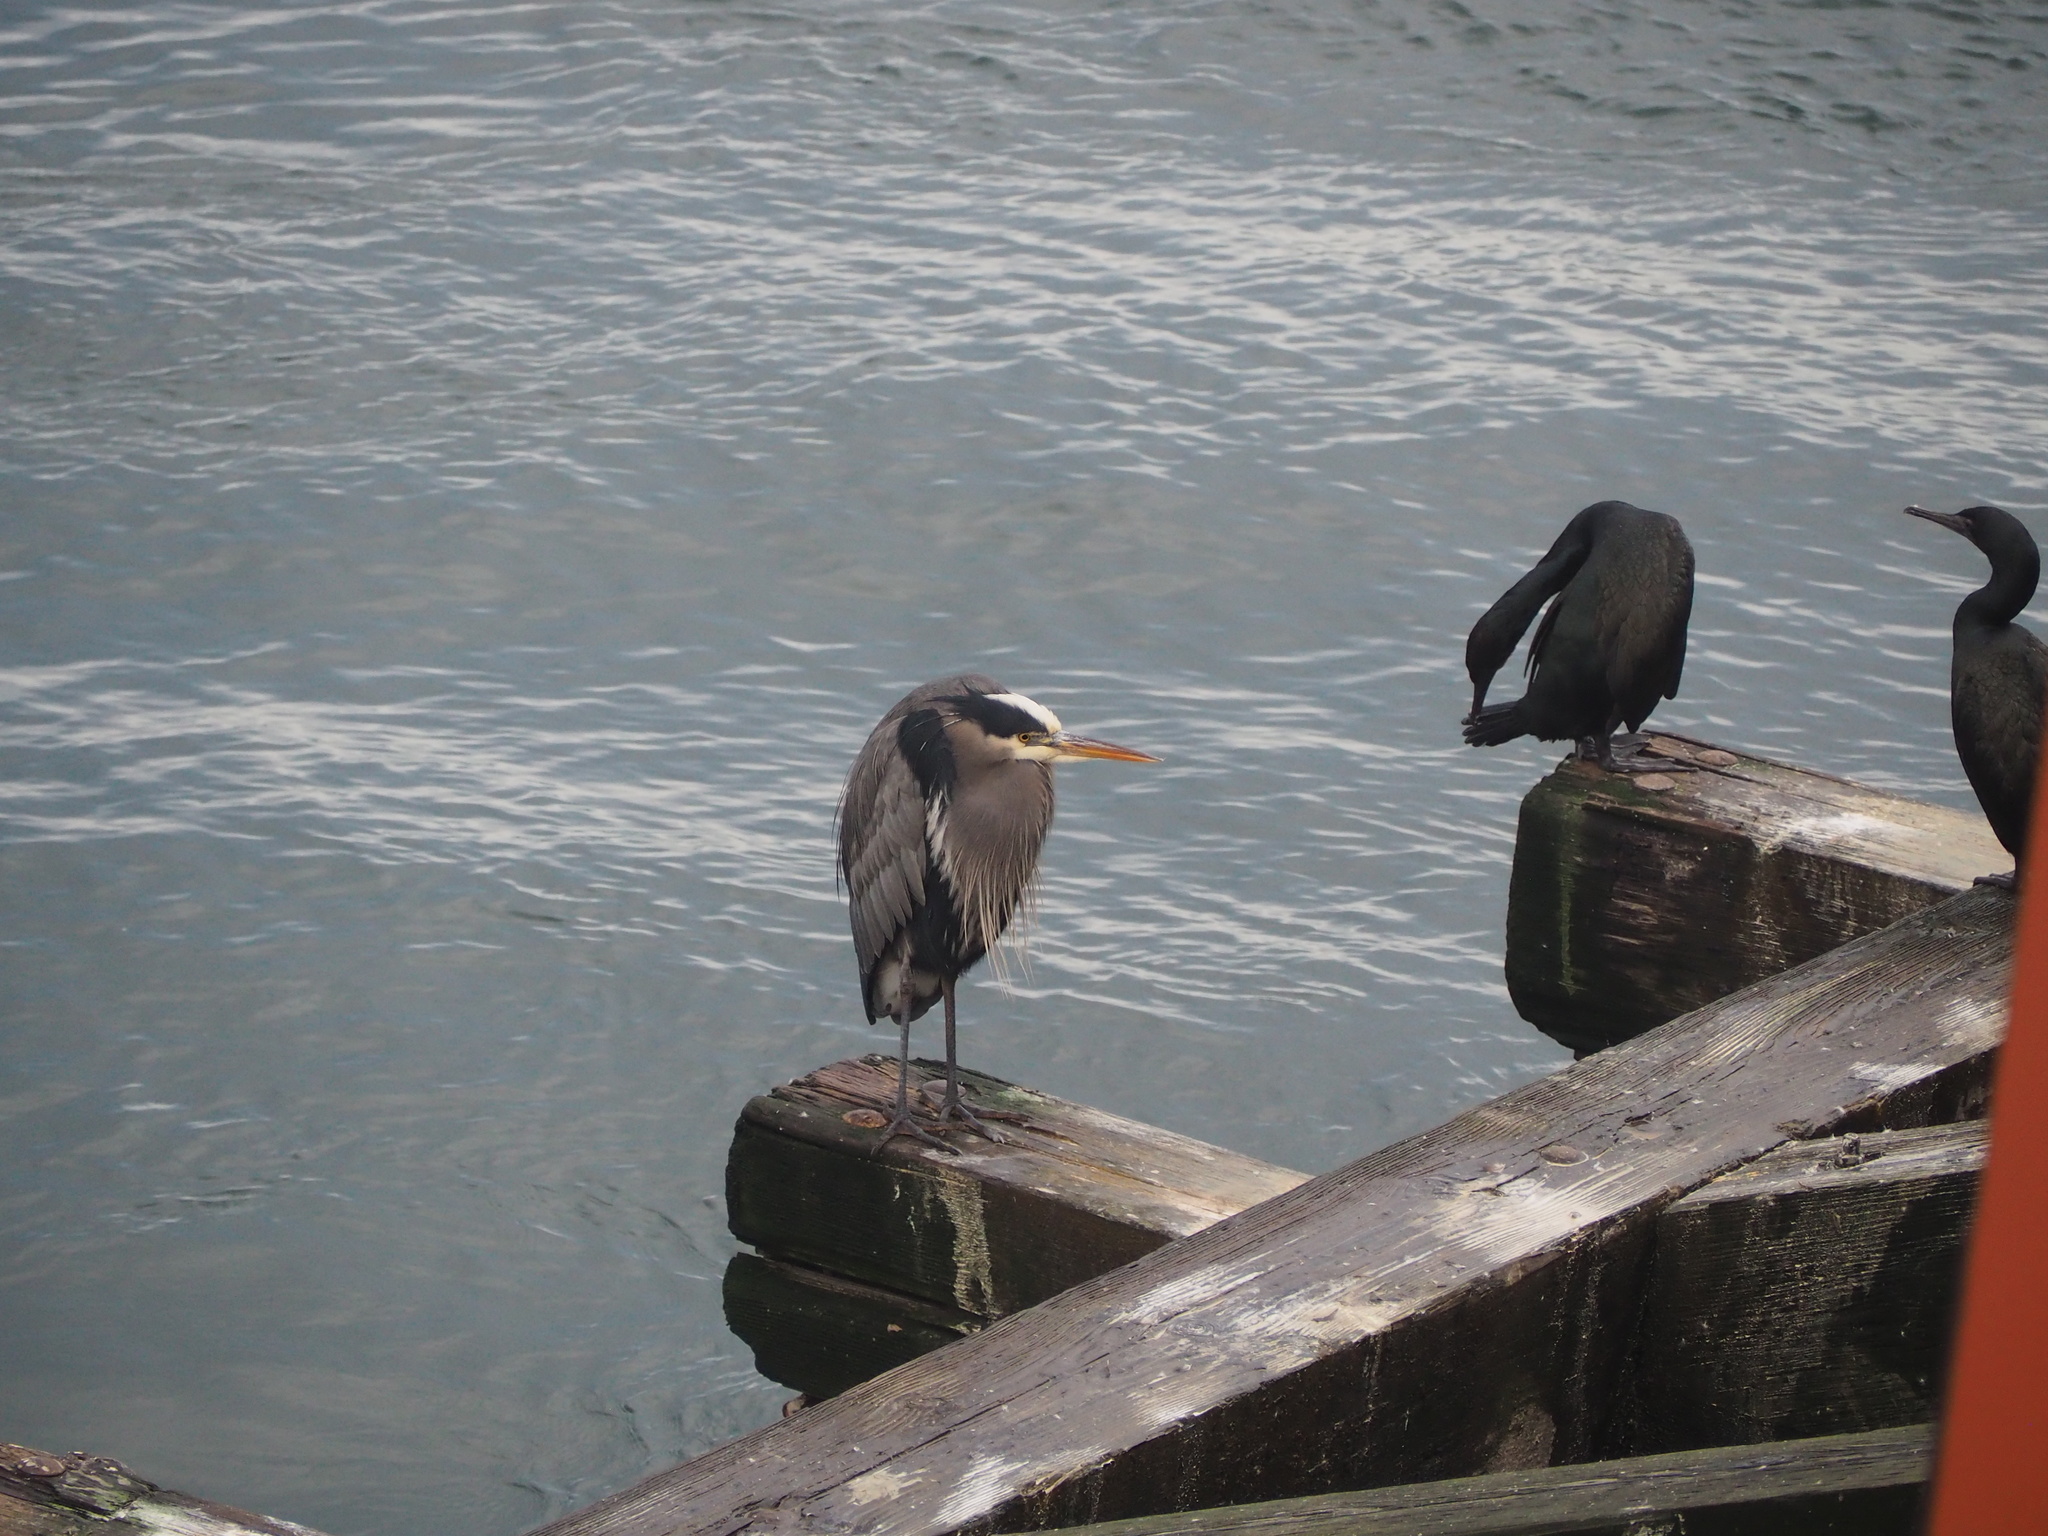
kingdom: Animalia
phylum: Chordata
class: Aves
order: Pelecaniformes
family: Ardeidae
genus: Ardea
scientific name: Ardea herodias
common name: Great blue heron
